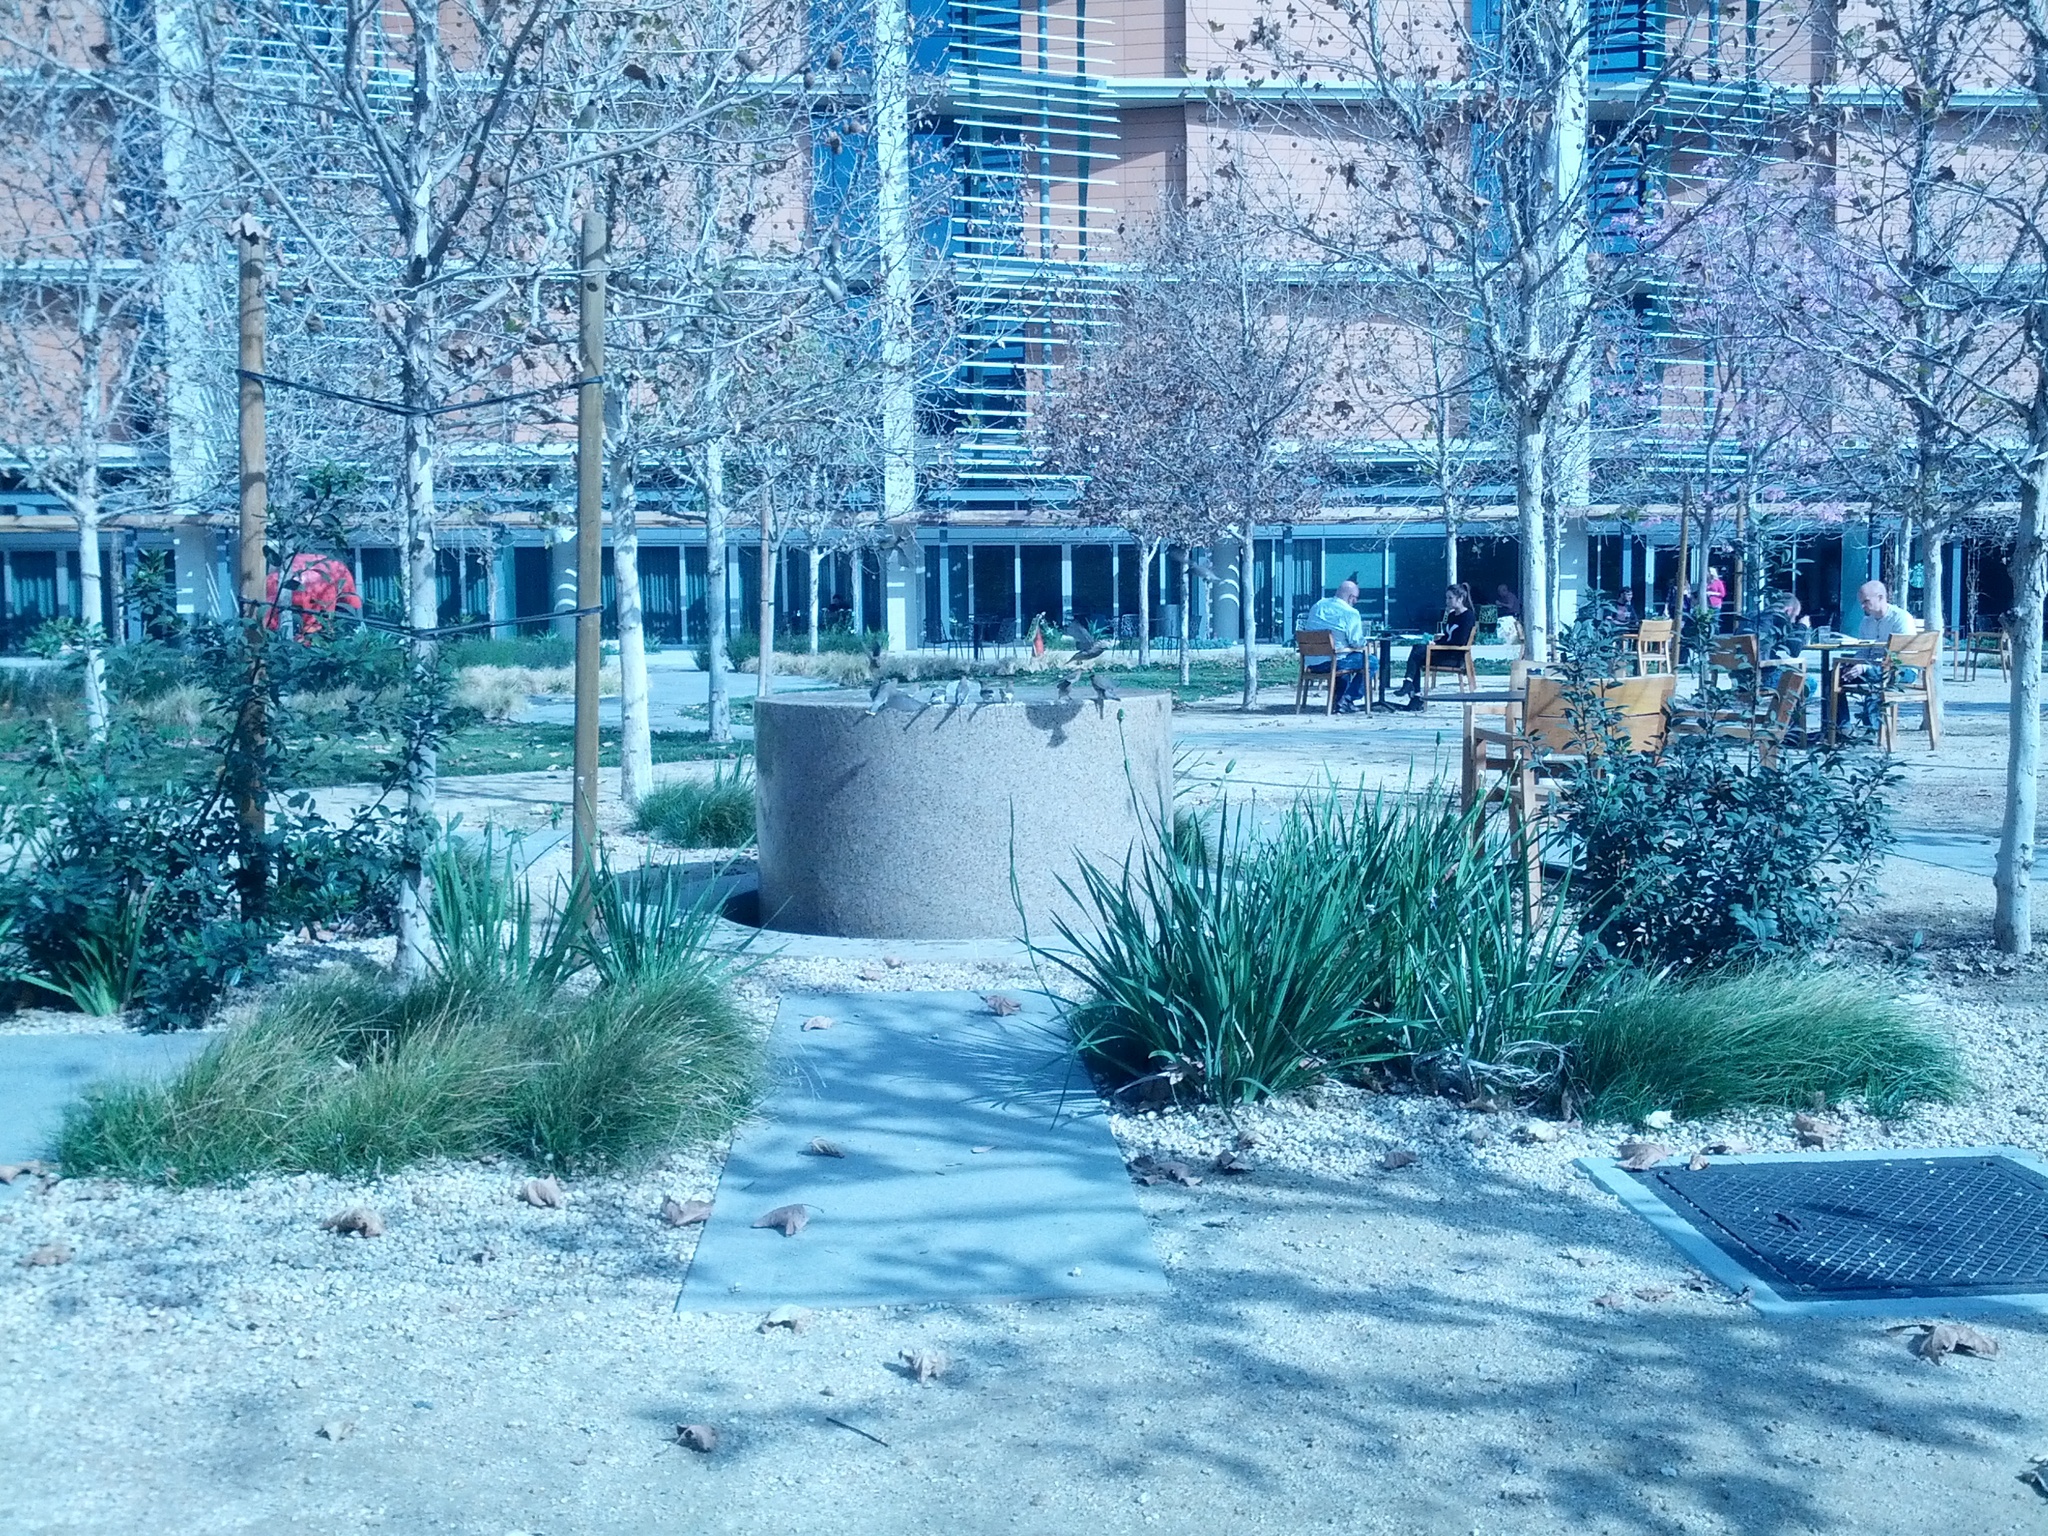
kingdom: Animalia
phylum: Chordata
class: Aves
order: Passeriformes
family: Bombycillidae
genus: Bombycilla
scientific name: Bombycilla cedrorum
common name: Cedar waxwing
